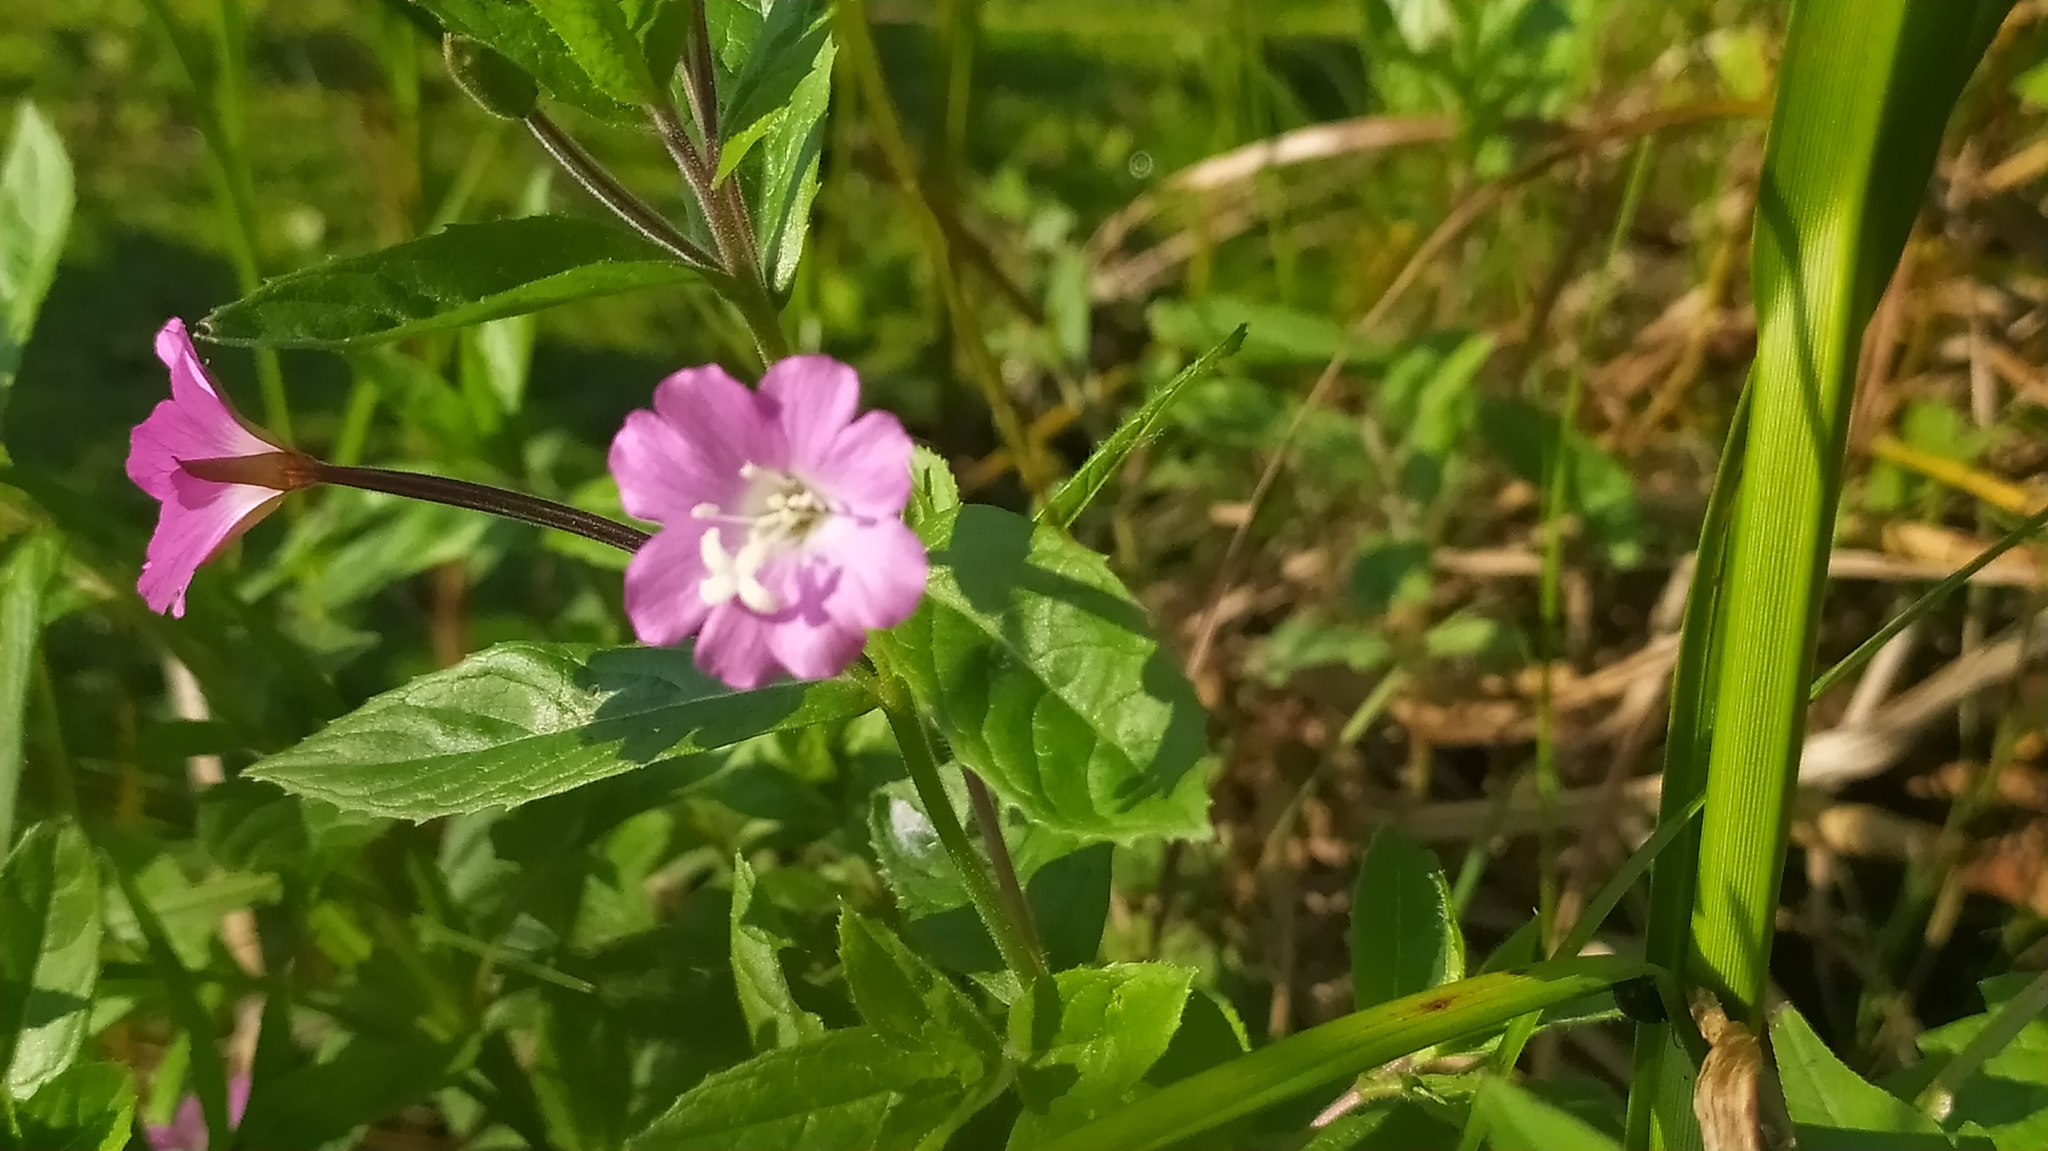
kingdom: Plantae
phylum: Tracheophyta
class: Magnoliopsida
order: Myrtales
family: Onagraceae
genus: Epilobium
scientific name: Epilobium hirsutum
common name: Great willowherb
